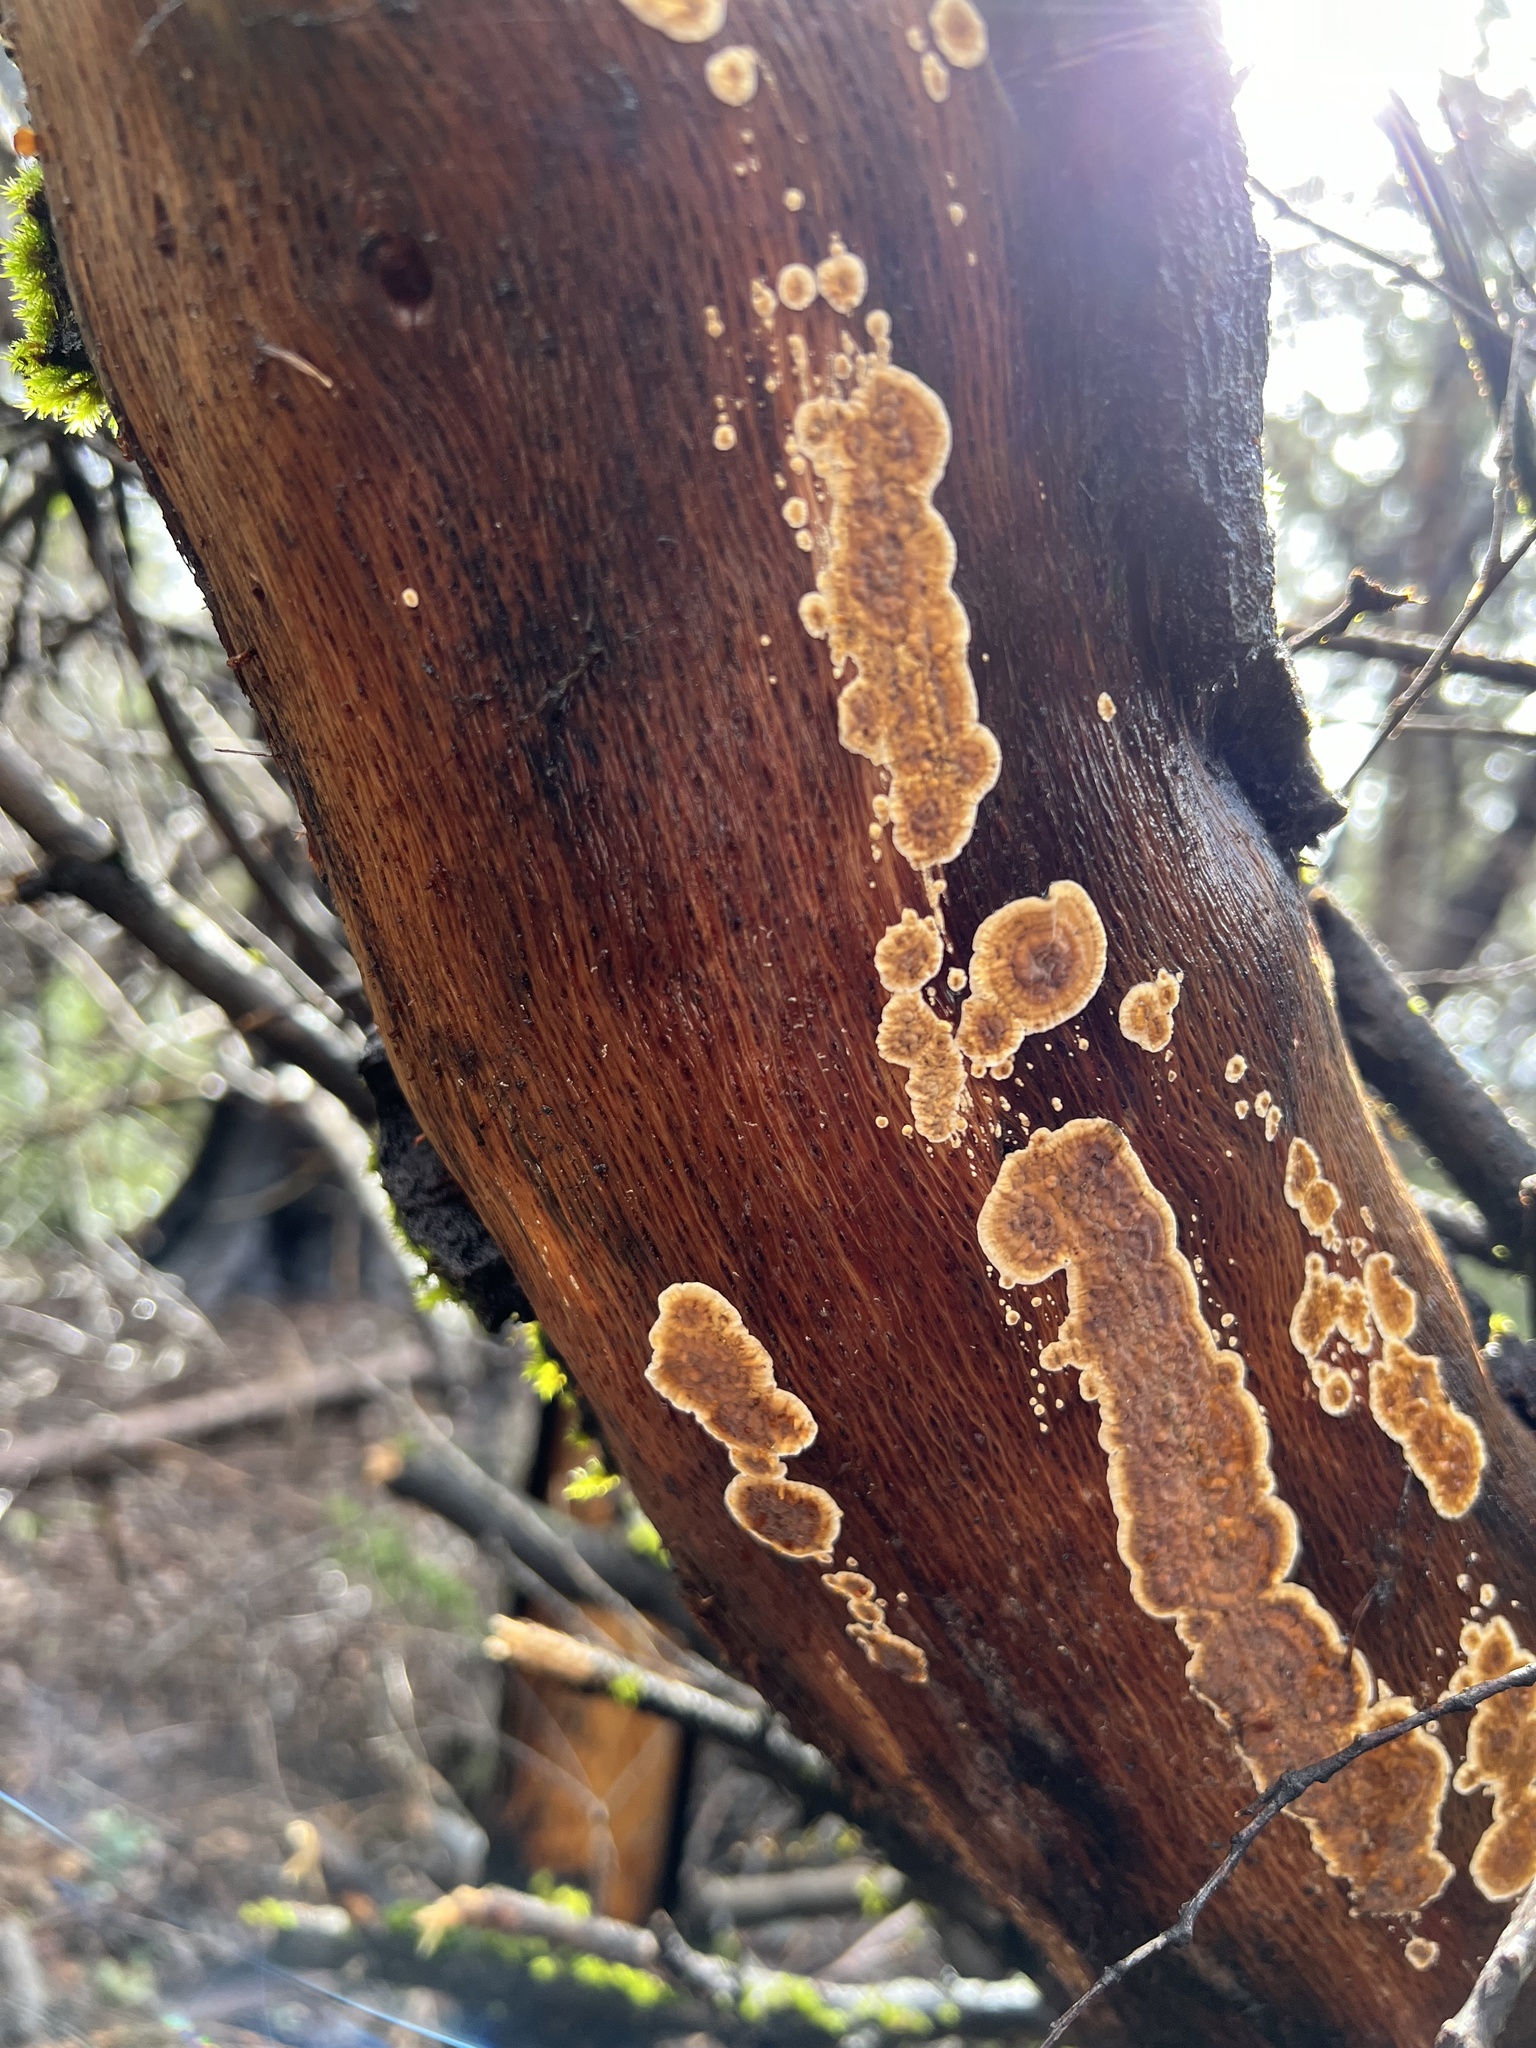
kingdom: Fungi
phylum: Basidiomycota
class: Agaricomycetes
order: Russulales
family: Stereaceae
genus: Stereum
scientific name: Stereum gausapatum
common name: Bleeding oak crust
